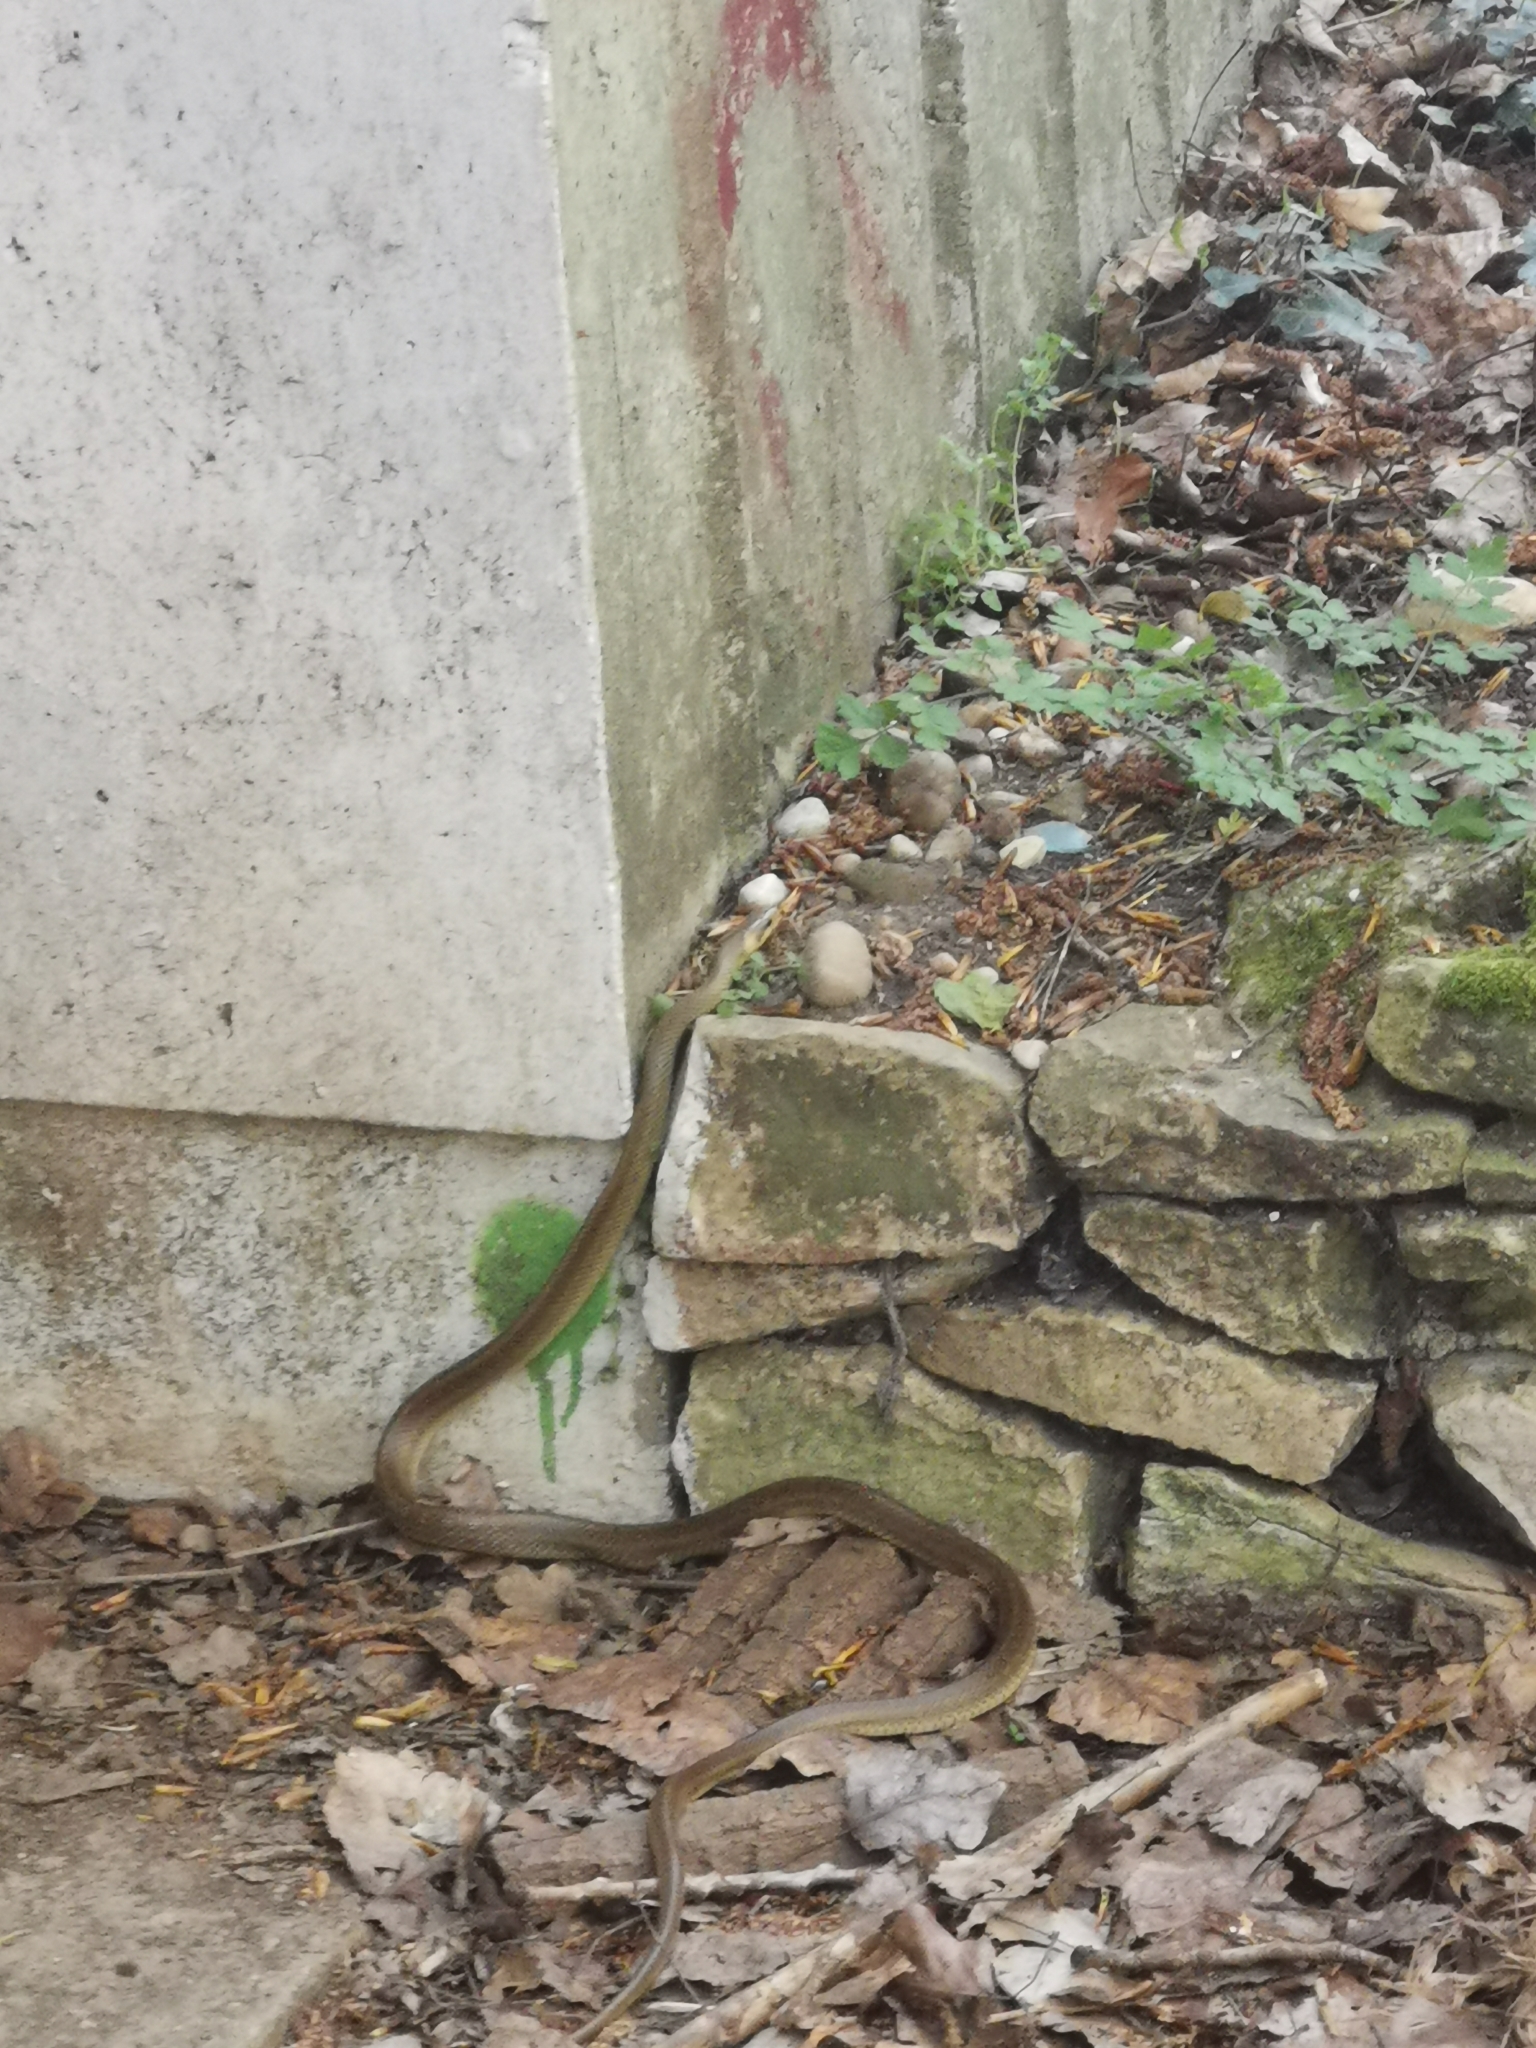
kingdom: Animalia
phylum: Chordata
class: Squamata
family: Colubridae
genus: Zamenis
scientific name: Zamenis longissimus
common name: Aesculapean snake
